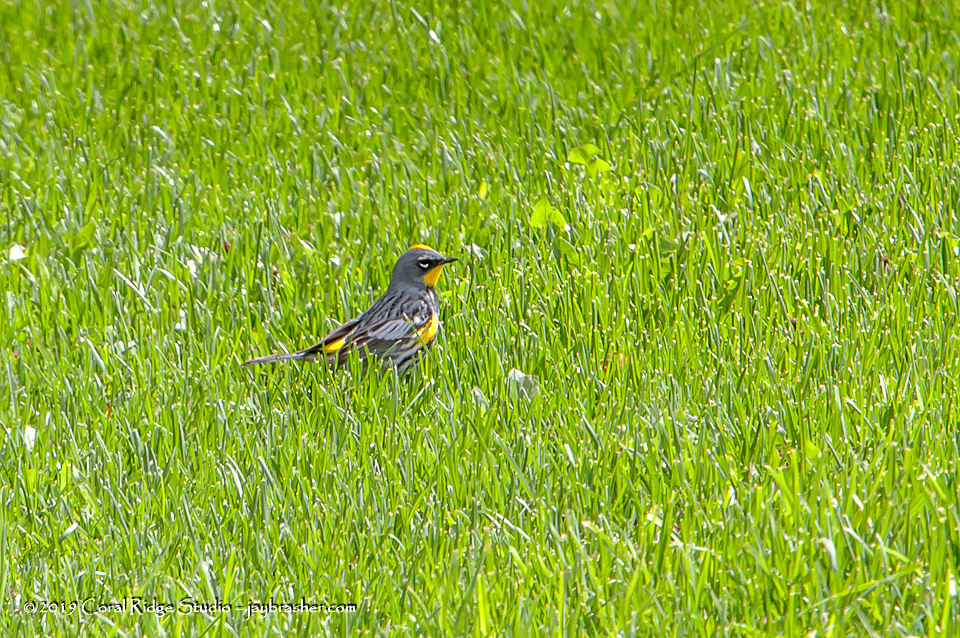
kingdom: Animalia
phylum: Chordata
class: Aves
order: Passeriformes
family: Parulidae
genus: Setophaga
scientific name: Setophaga auduboni
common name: Audubon's warbler
